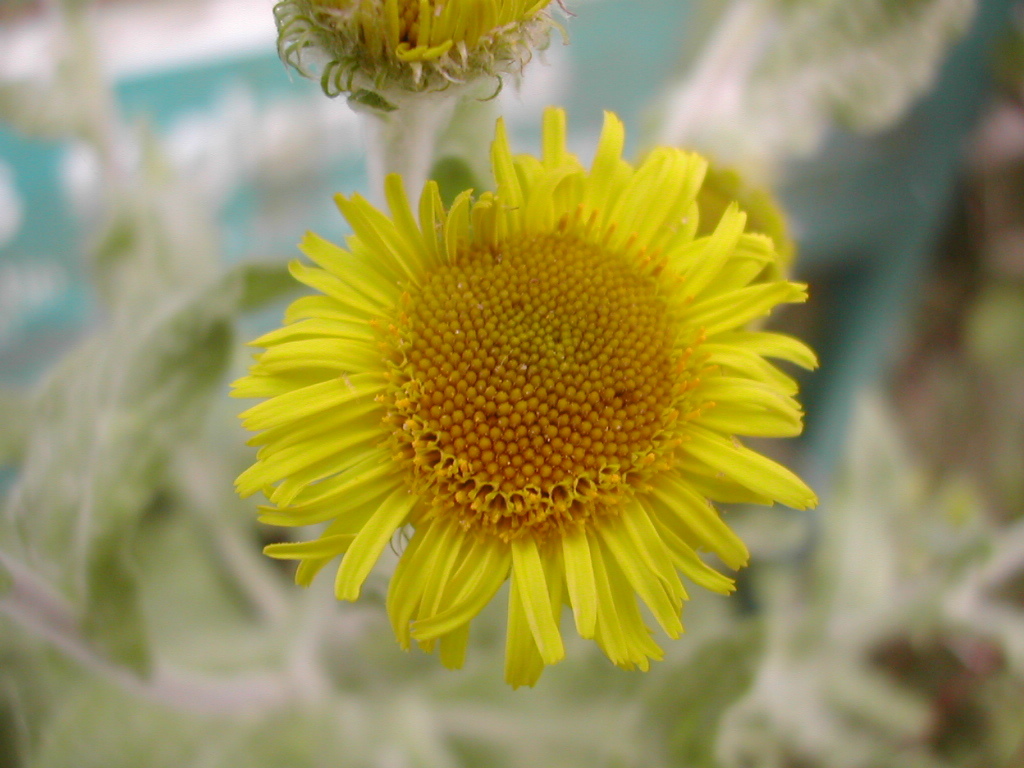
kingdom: Plantae
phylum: Tracheophyta
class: Magnoliopsida
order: Asterales
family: Asteraceae
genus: Pulicaria
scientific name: Pulicaria dysenterica
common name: Common fleabane
